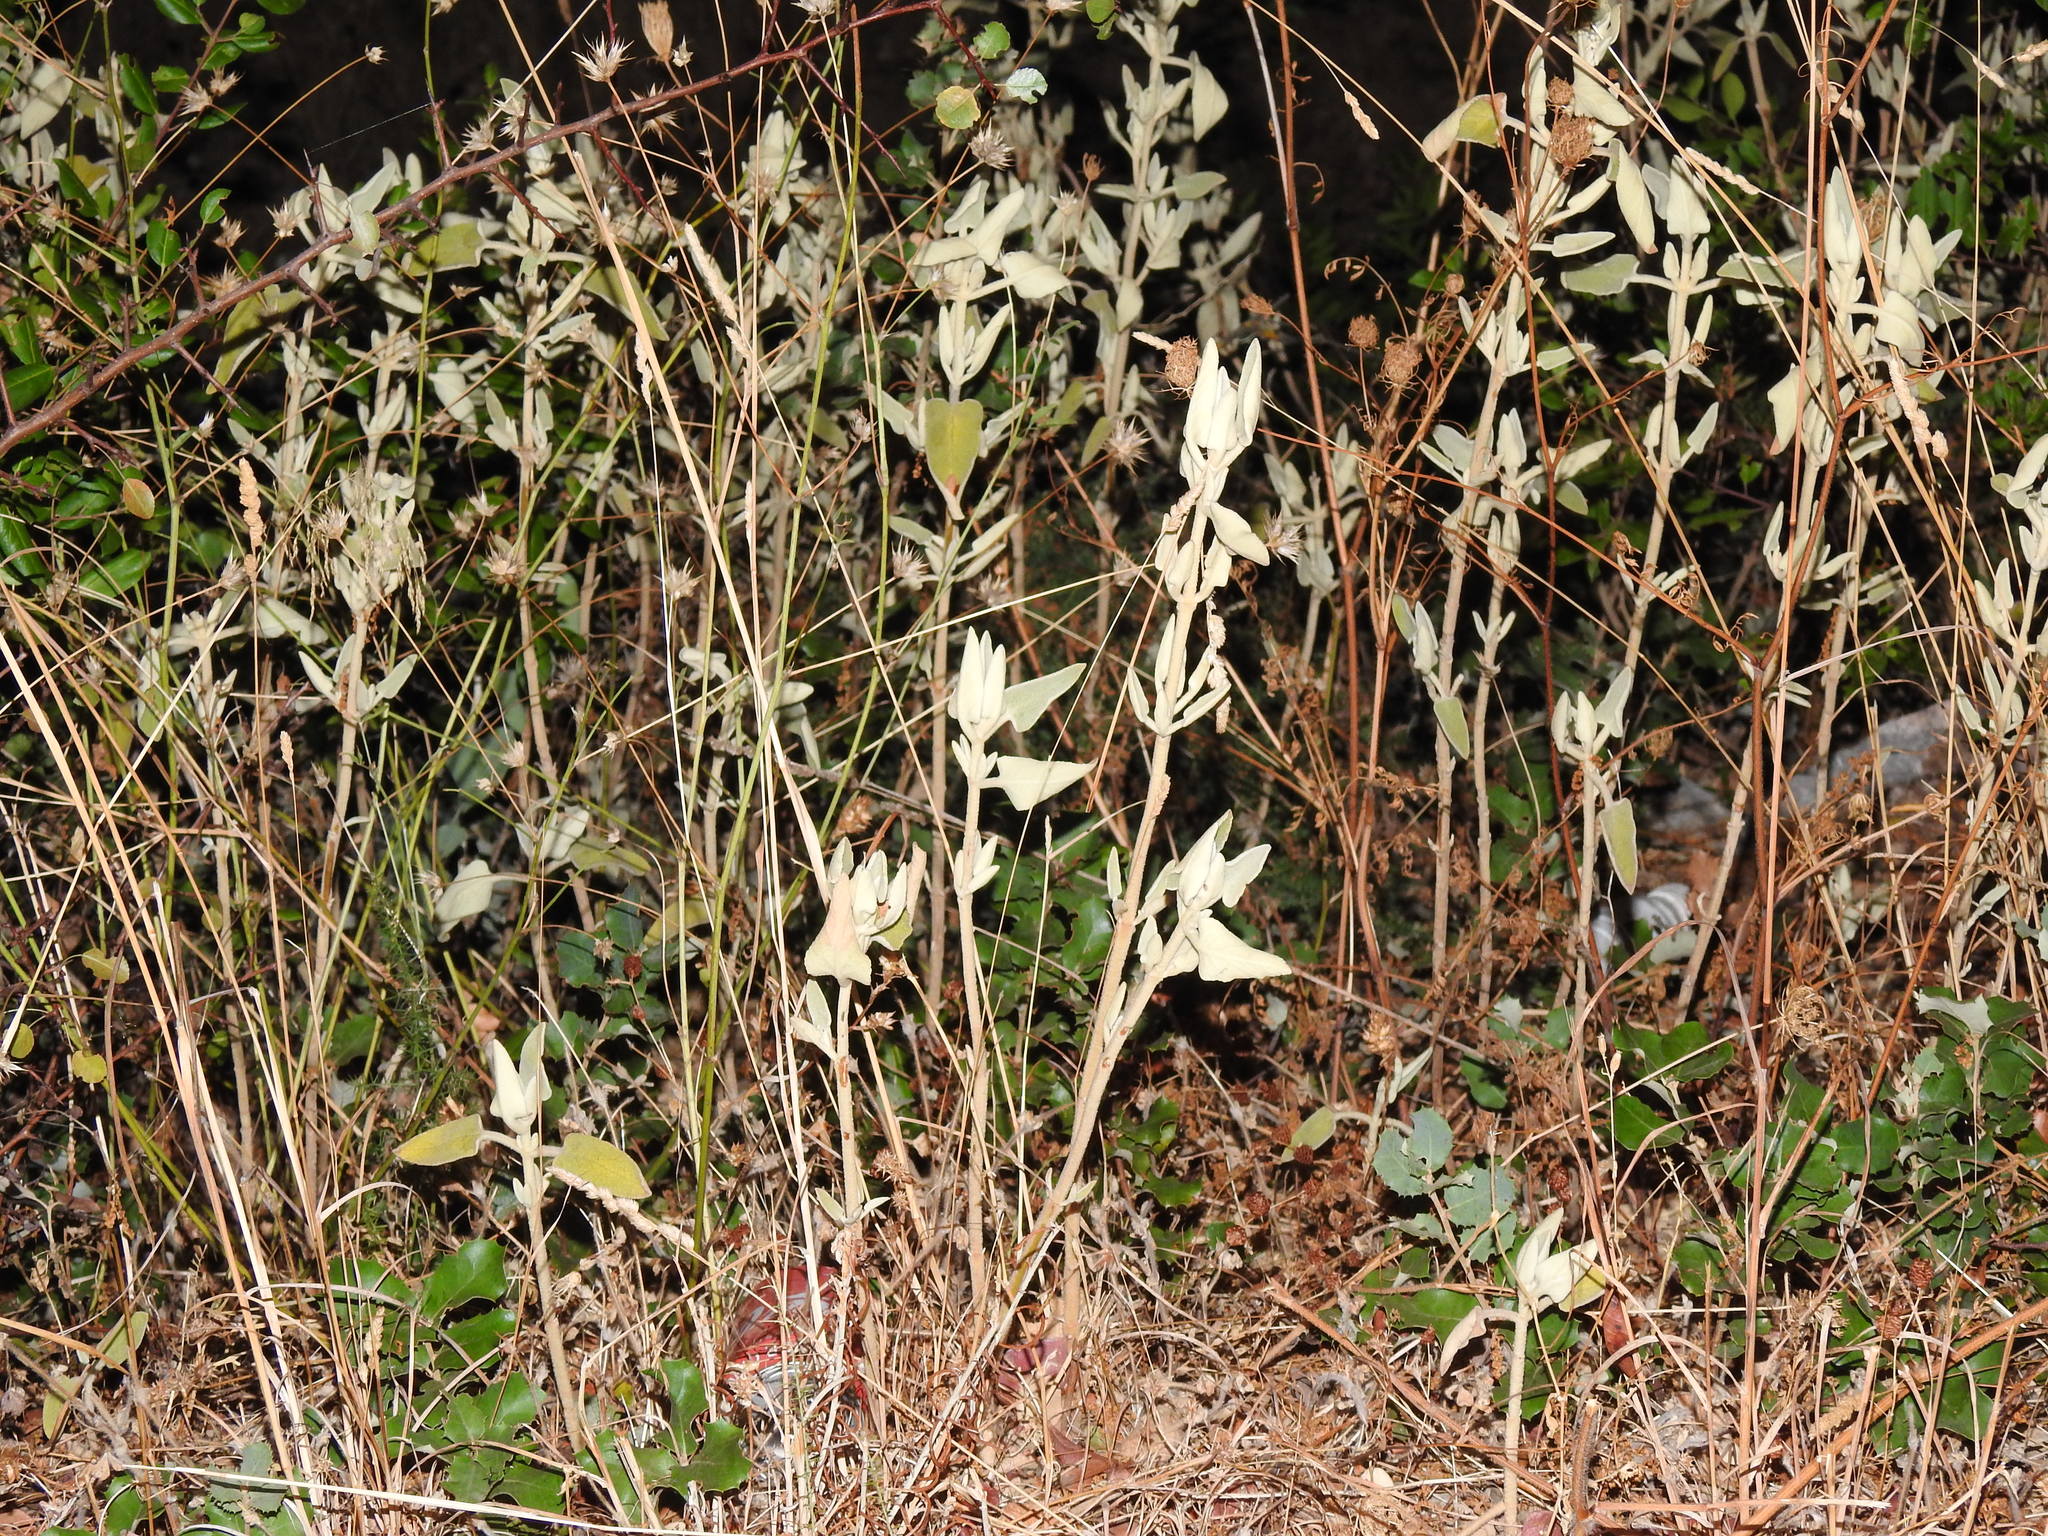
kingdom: Plantae
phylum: Tracheophyta
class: Magnoliopsida
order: Lamiales
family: Lamiaceae
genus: Phlomis
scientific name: Phlomis purpurea
